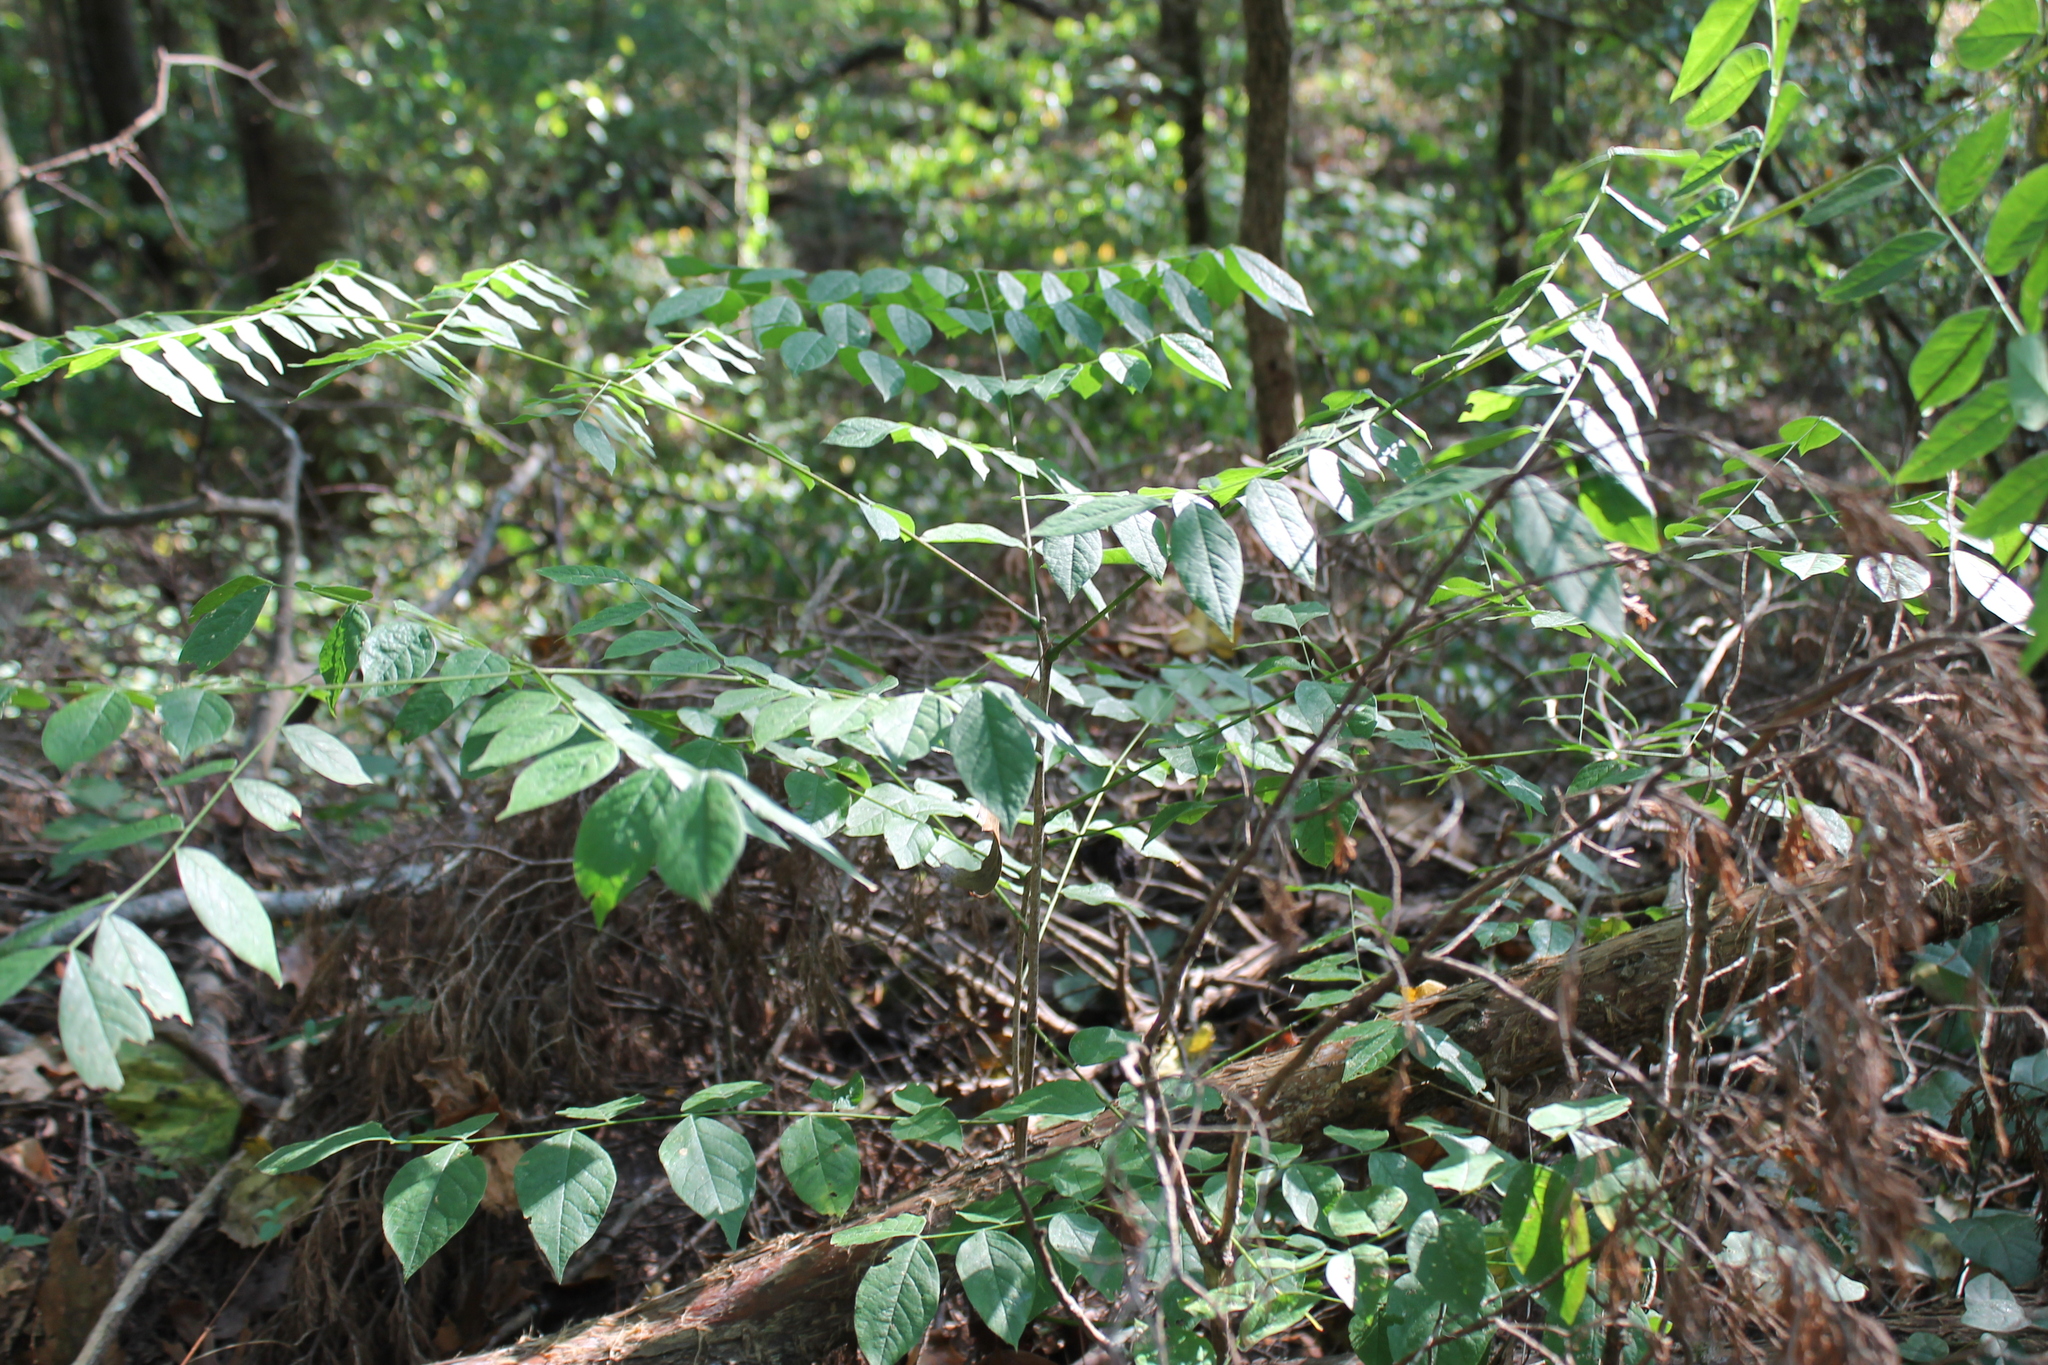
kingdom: Plantae
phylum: Tracheophyta
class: Magnoliopsida
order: Fabales
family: Fabaceae
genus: Gymnocladus
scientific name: Gymnocladus dioicus
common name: Kentucky coffee-tree
